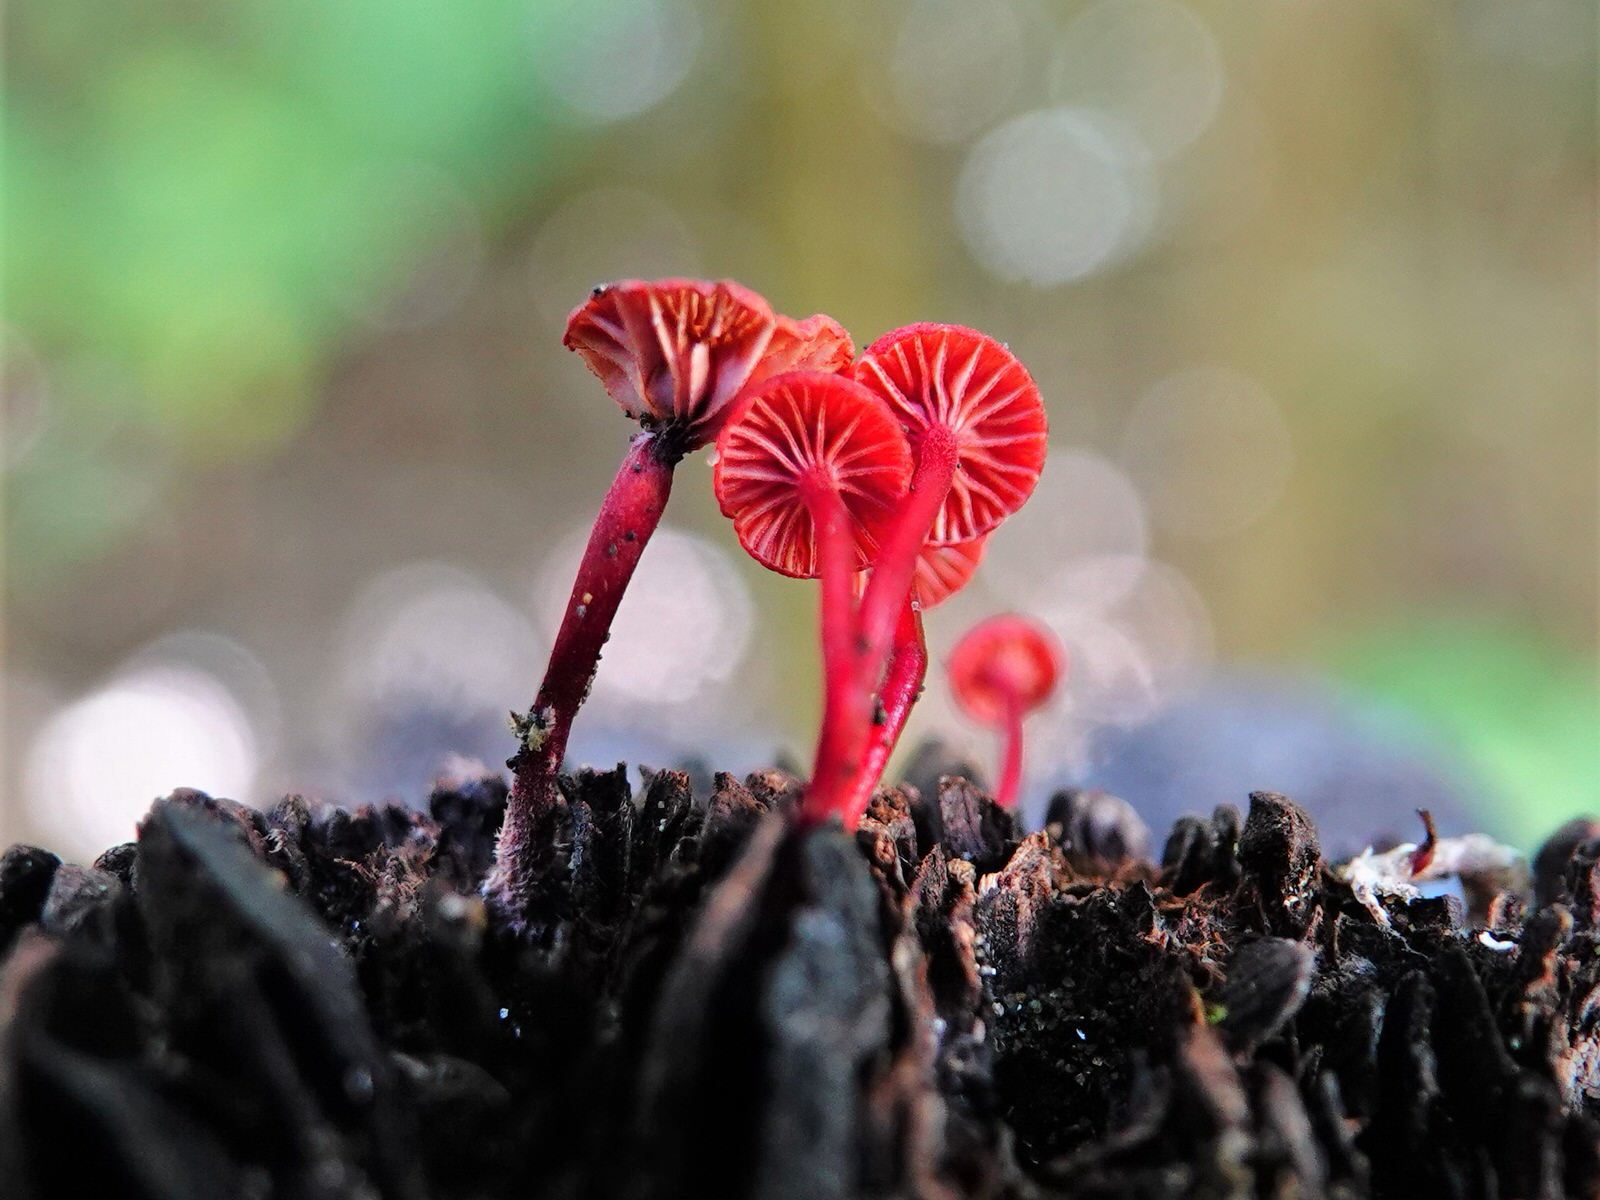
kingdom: Fungi
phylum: Basidiomycota
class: Agaricomycetes
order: Agaricales
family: Mycenaceae
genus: Cruentomycena
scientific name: Cruentomycena viscidocruenta
